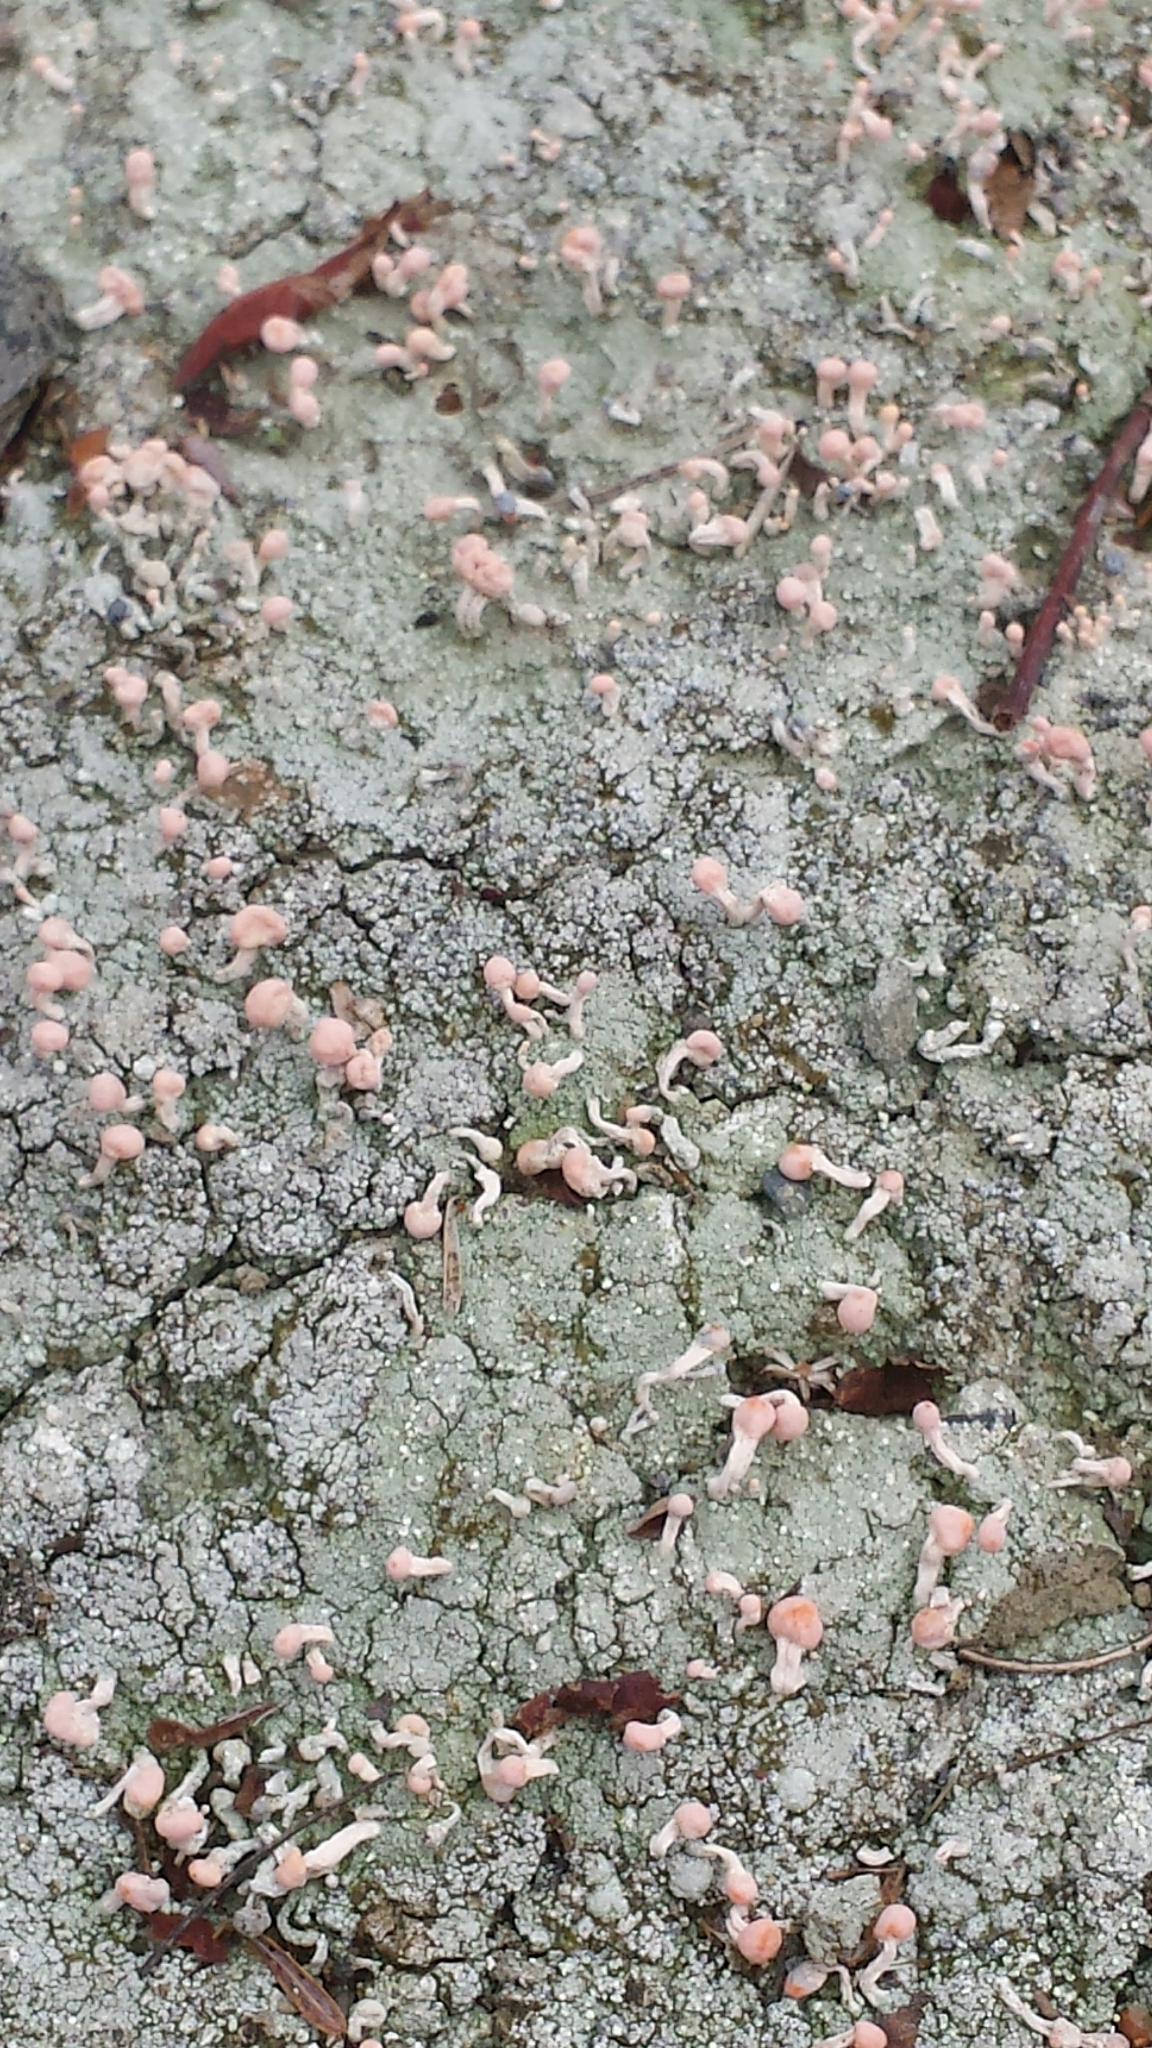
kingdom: Fungi
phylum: Ascomycota
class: Lecanoromycetes
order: Pertusariales
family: Icmadophilaceae
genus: Dibaeis
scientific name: Dibaeis baeomyces
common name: Pink earth lichen
